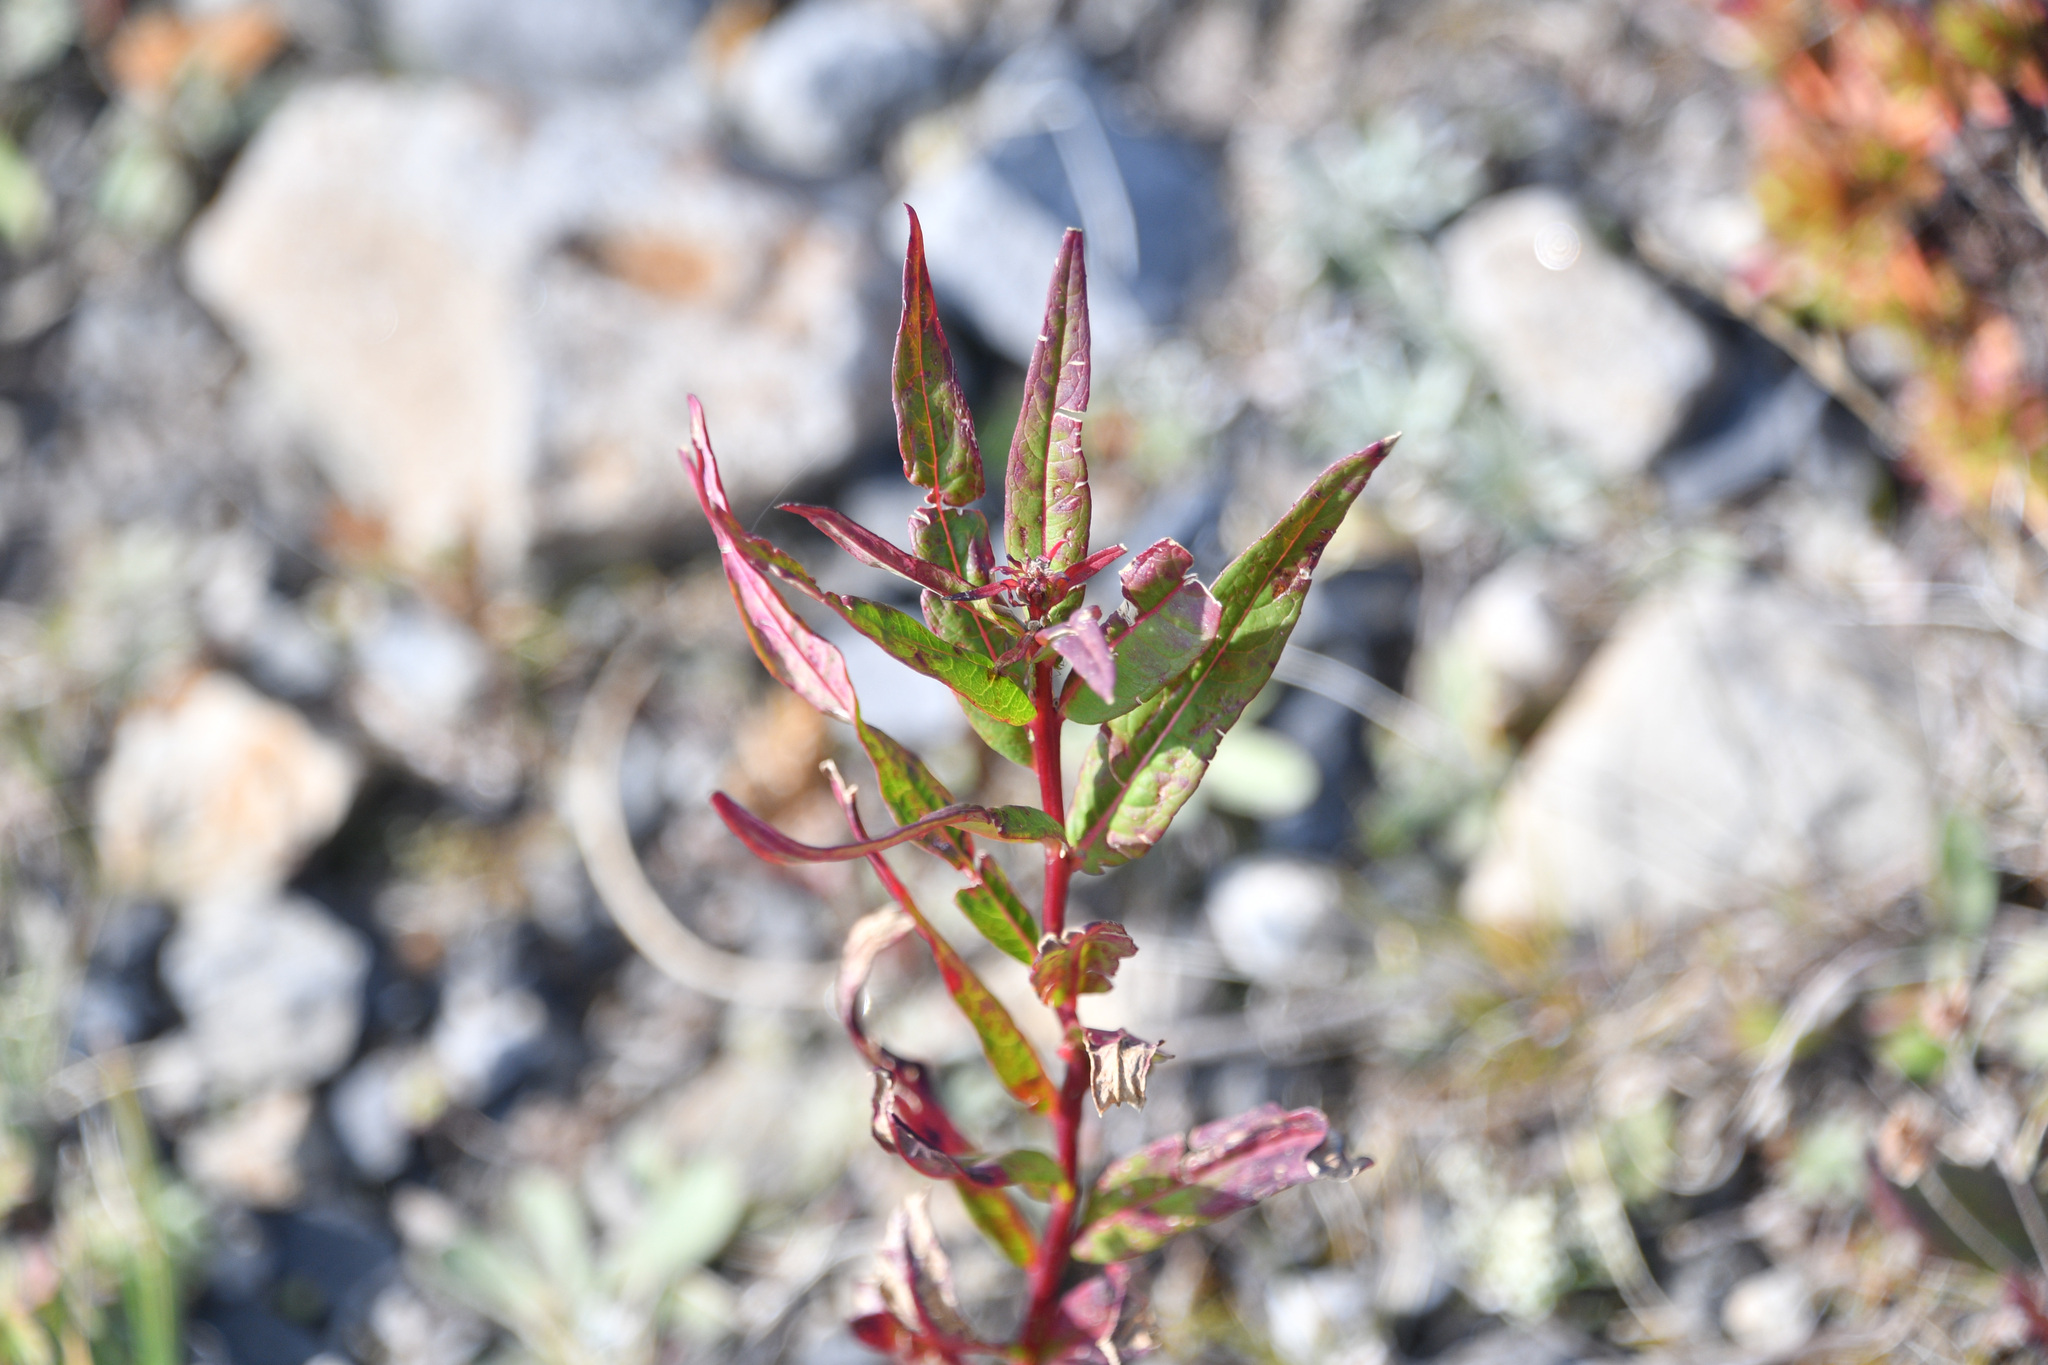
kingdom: Plantae
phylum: Tracheophyta
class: Magnoliopsida
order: Myrtales
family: Onagraceae
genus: Chamaenerion
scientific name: Chamaenerion angustifolium
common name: Fireweed
